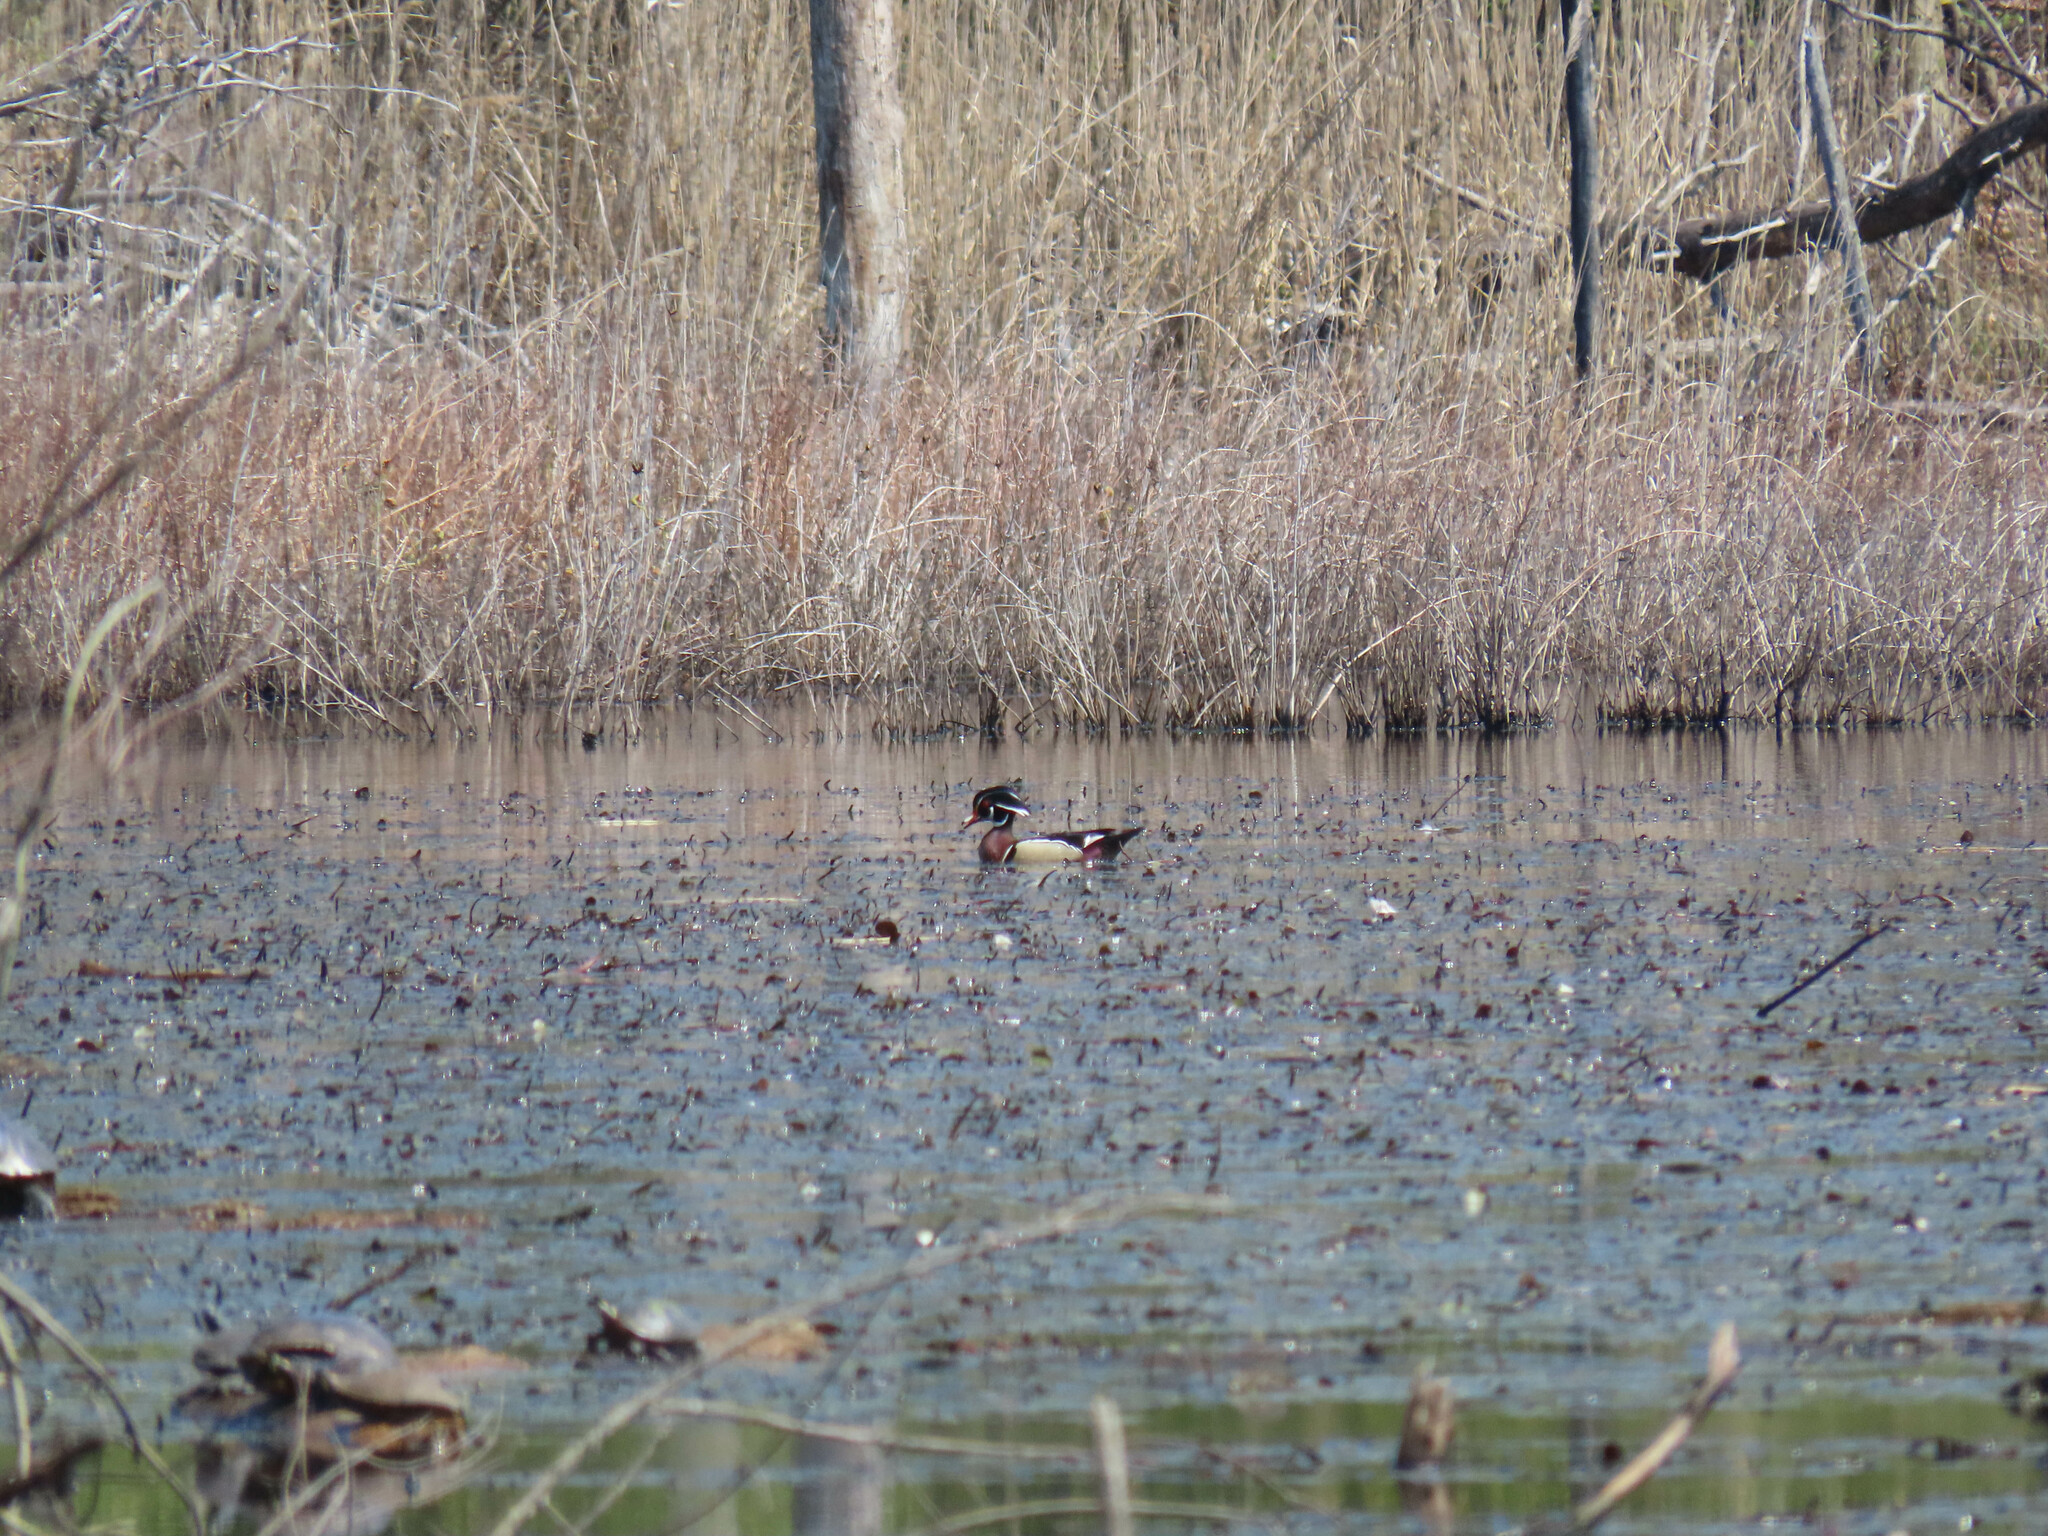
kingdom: Animalia
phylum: Chordata
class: Aves
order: Anseriformes
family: Anatidae
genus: Aix
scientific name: Aix sponsa
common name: Wood duck
